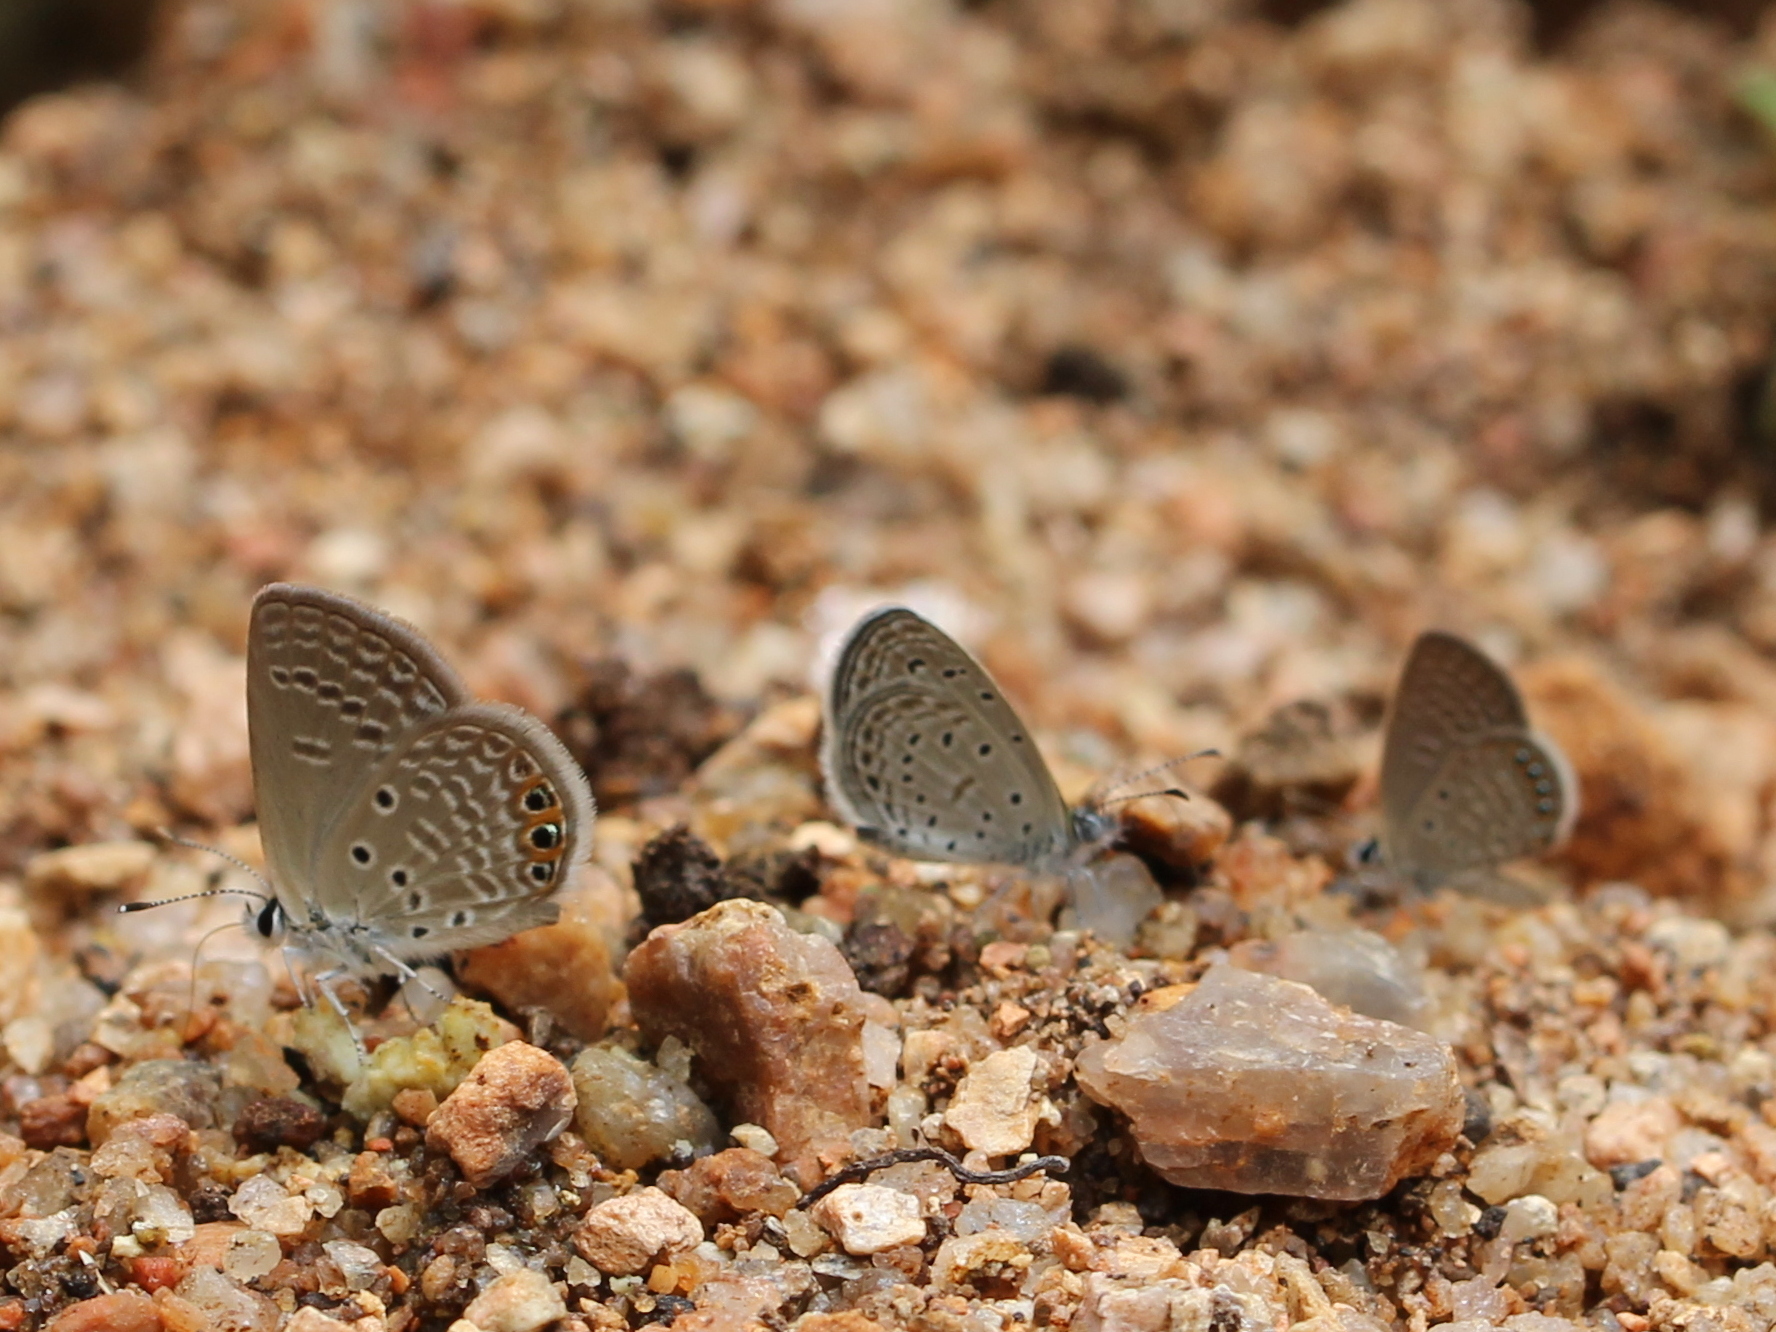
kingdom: Animalia
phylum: Arthropoda
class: Insecta
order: Lepidoptera
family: Lycaenidae
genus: Freyeria
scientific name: Freyeria trochylus
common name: Grass jewel
